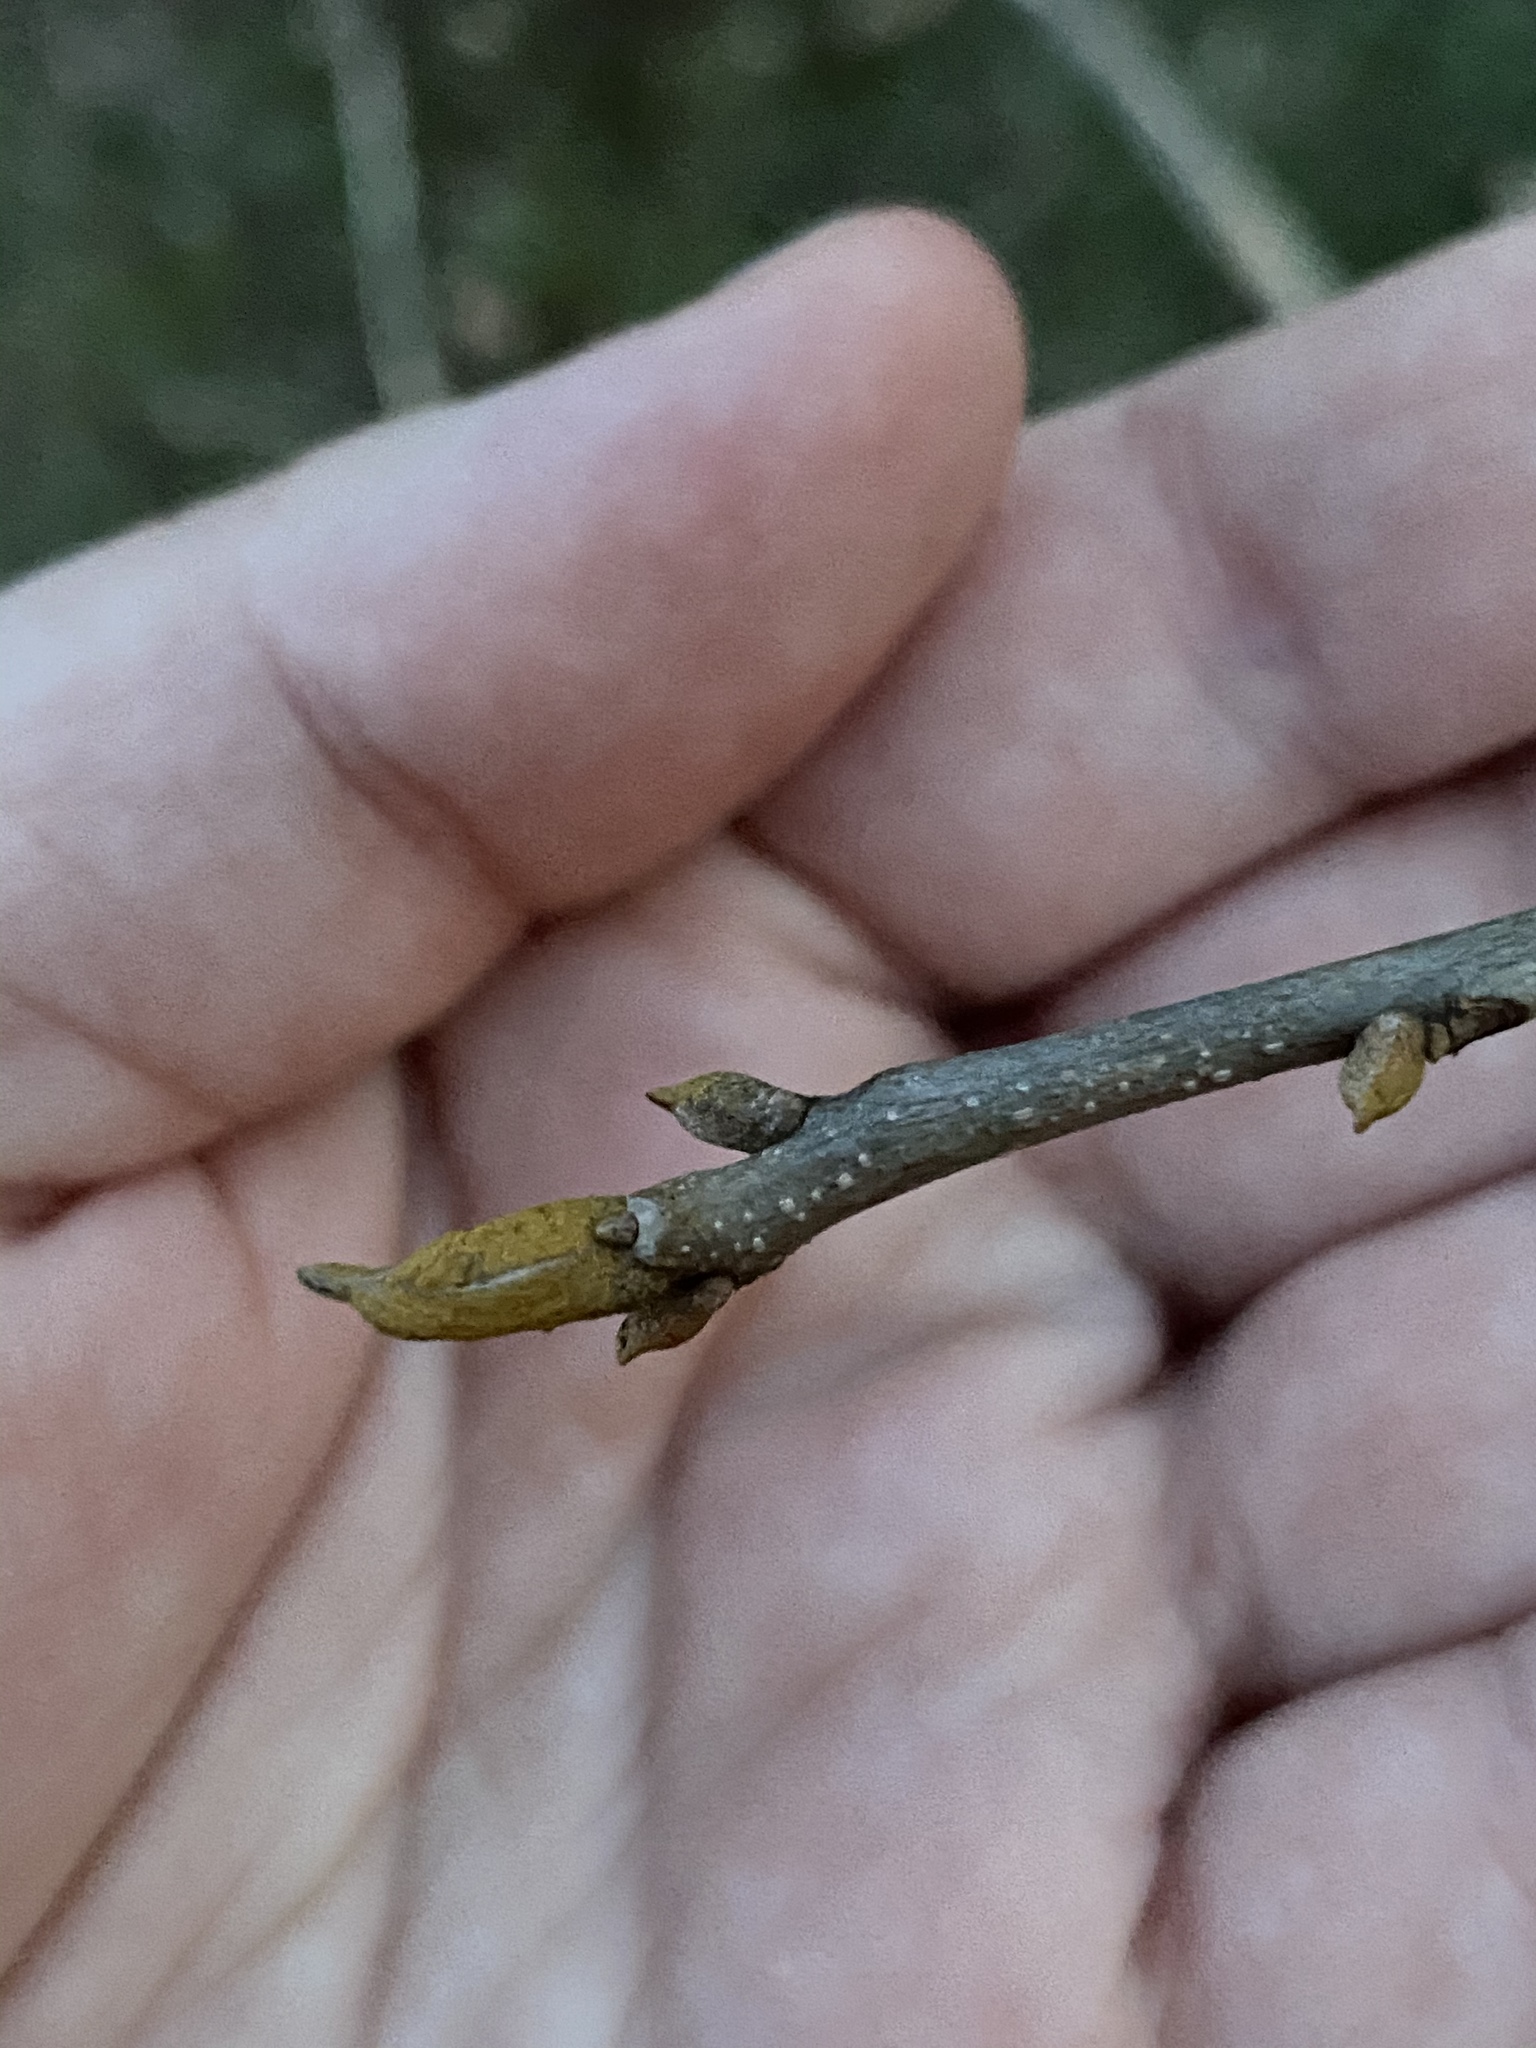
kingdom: Plantae
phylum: Tracheophyta
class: Magnoliopsida
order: Fagales
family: Juglandaceae
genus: Carya
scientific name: Carya cordiformis
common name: Bitternut hickory
